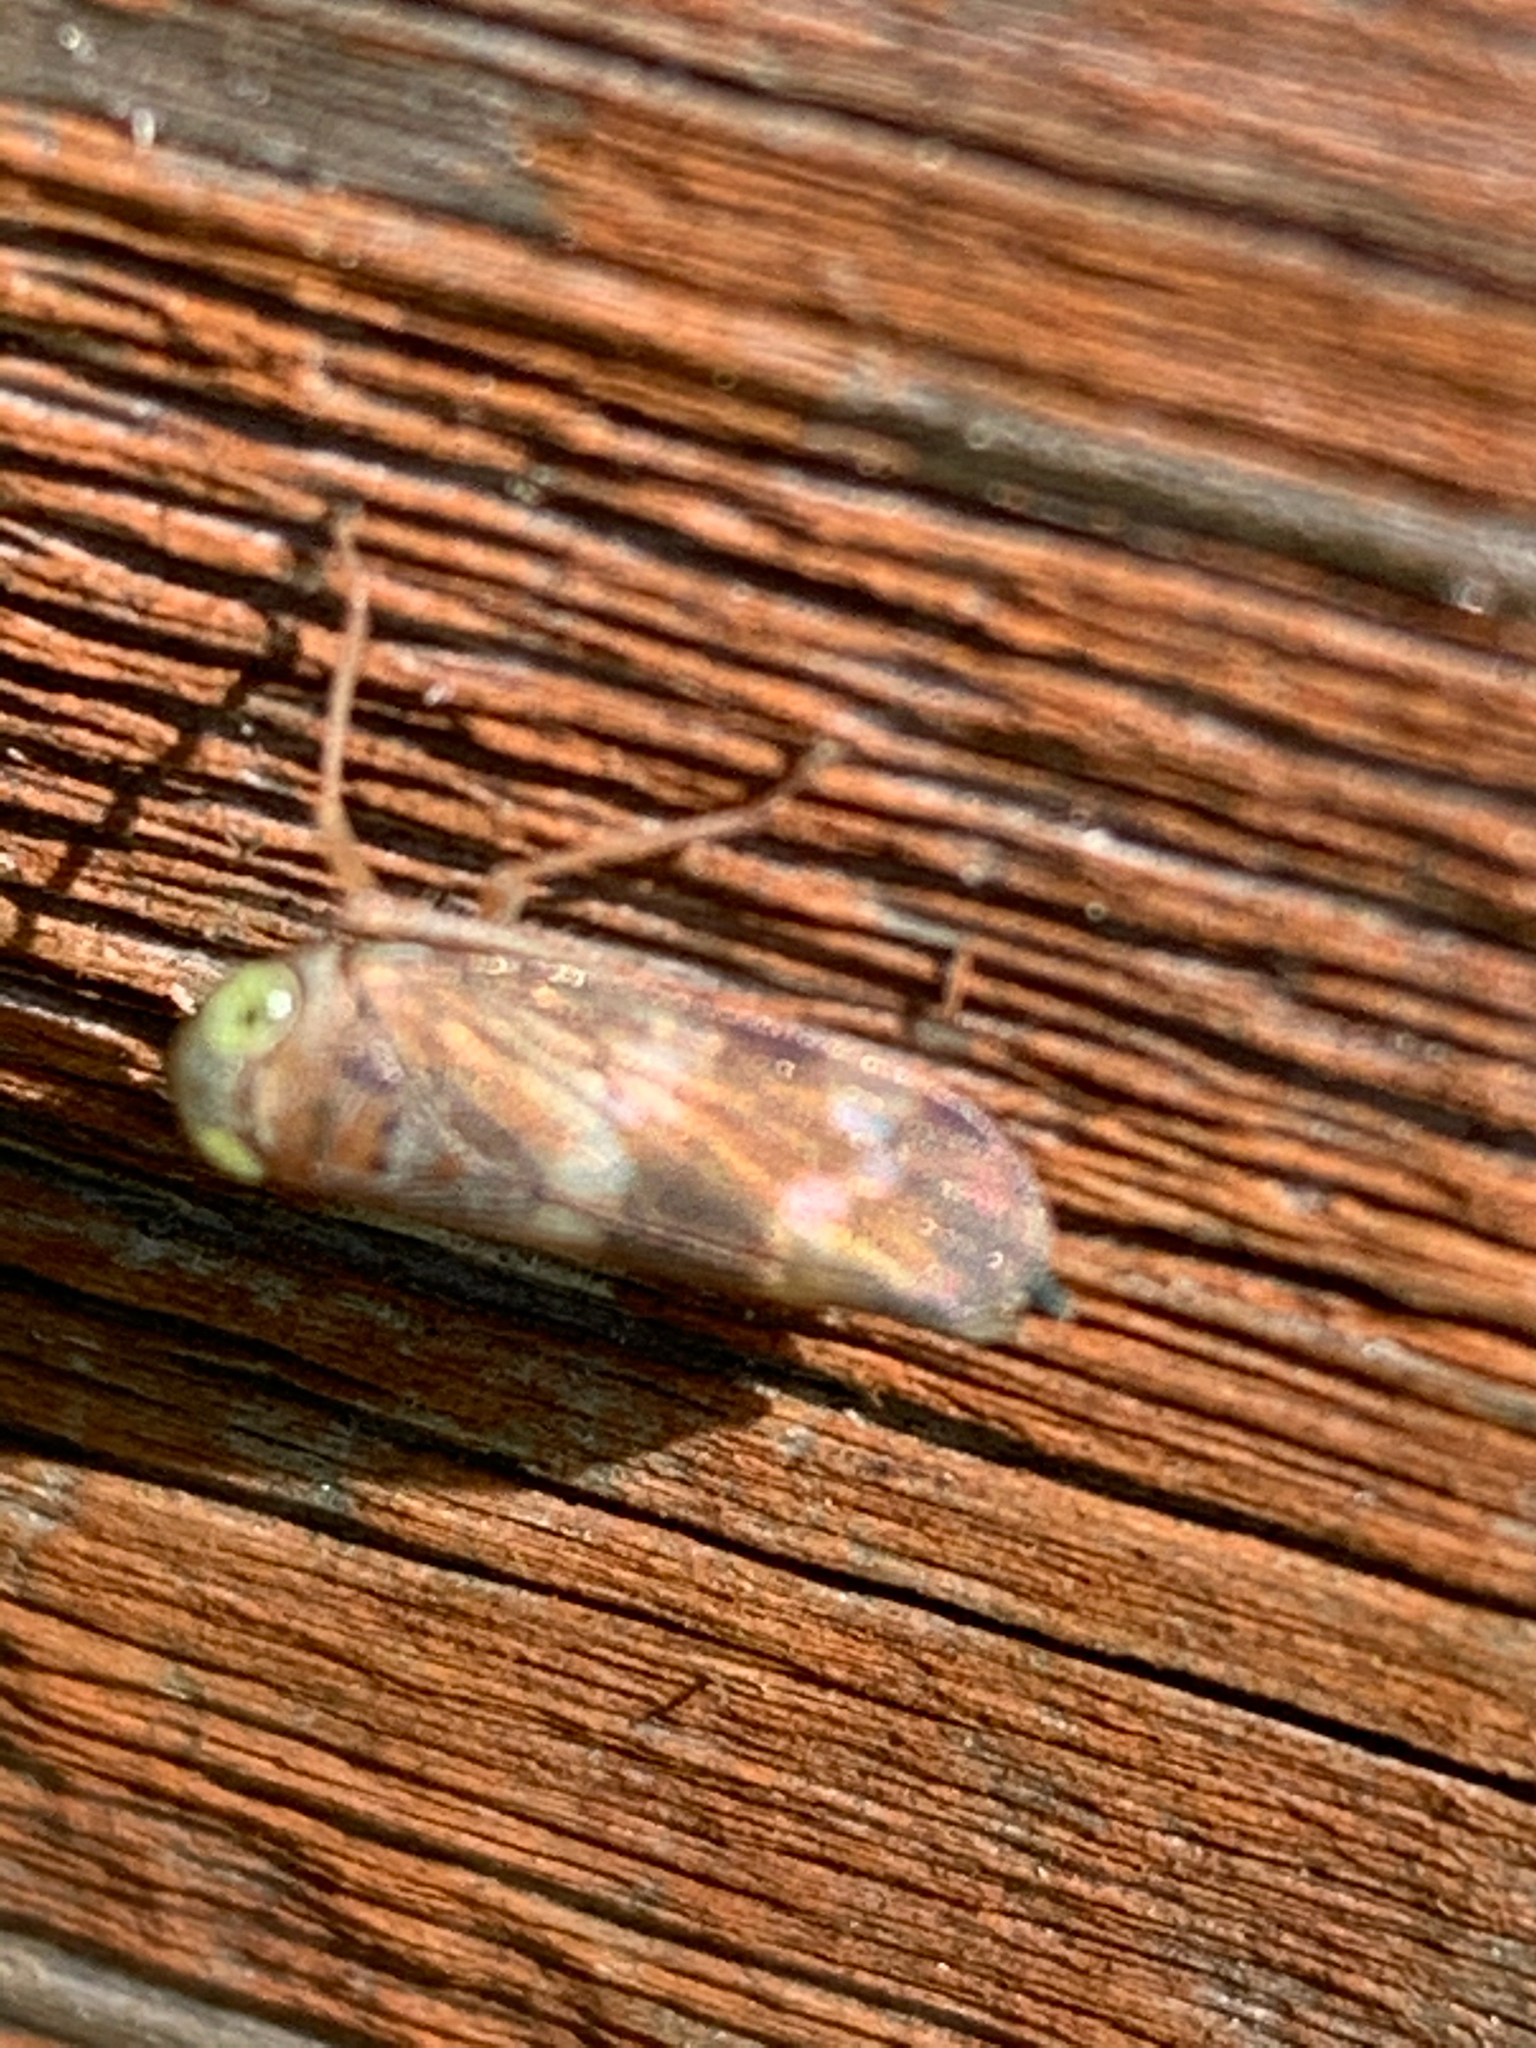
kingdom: Animalia
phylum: Arthropoda
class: Insecta
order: Hemiptera
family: Cicadellidae
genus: Jikradia
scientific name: Jikradia olitoria
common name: Coppery leafhopper
